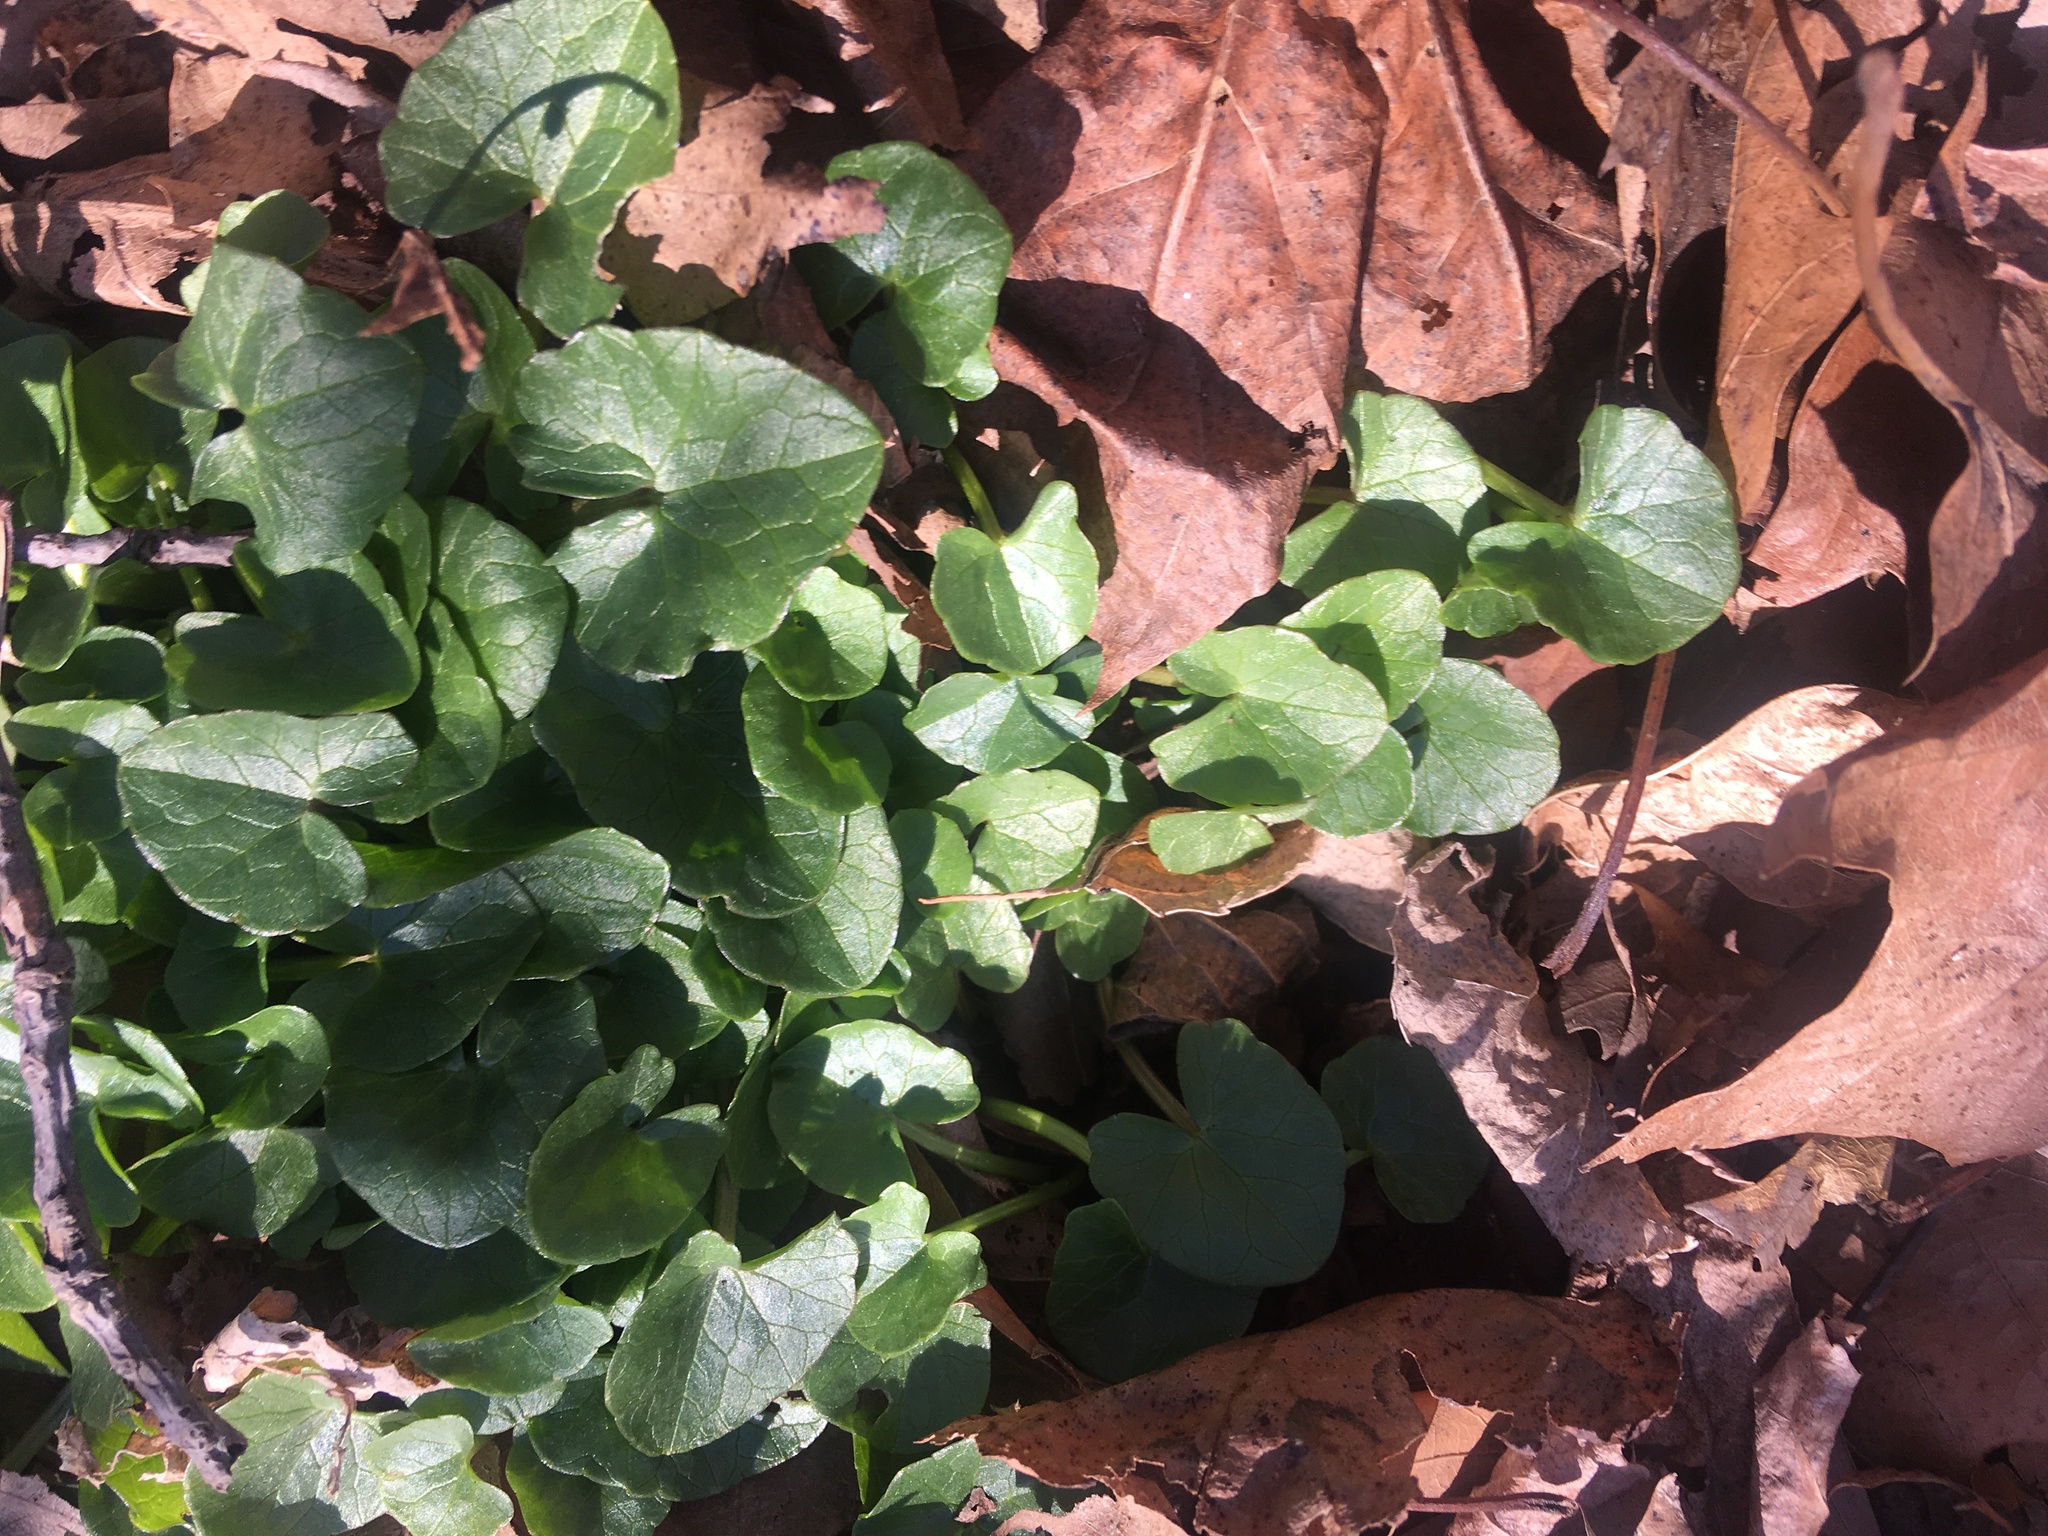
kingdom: Plantae
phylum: Tracheophyta
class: Magnoliopsida
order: Ranunculales
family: Ranunculaceae
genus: Ficaria
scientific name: Ficaria verna
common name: Lesser celandine
